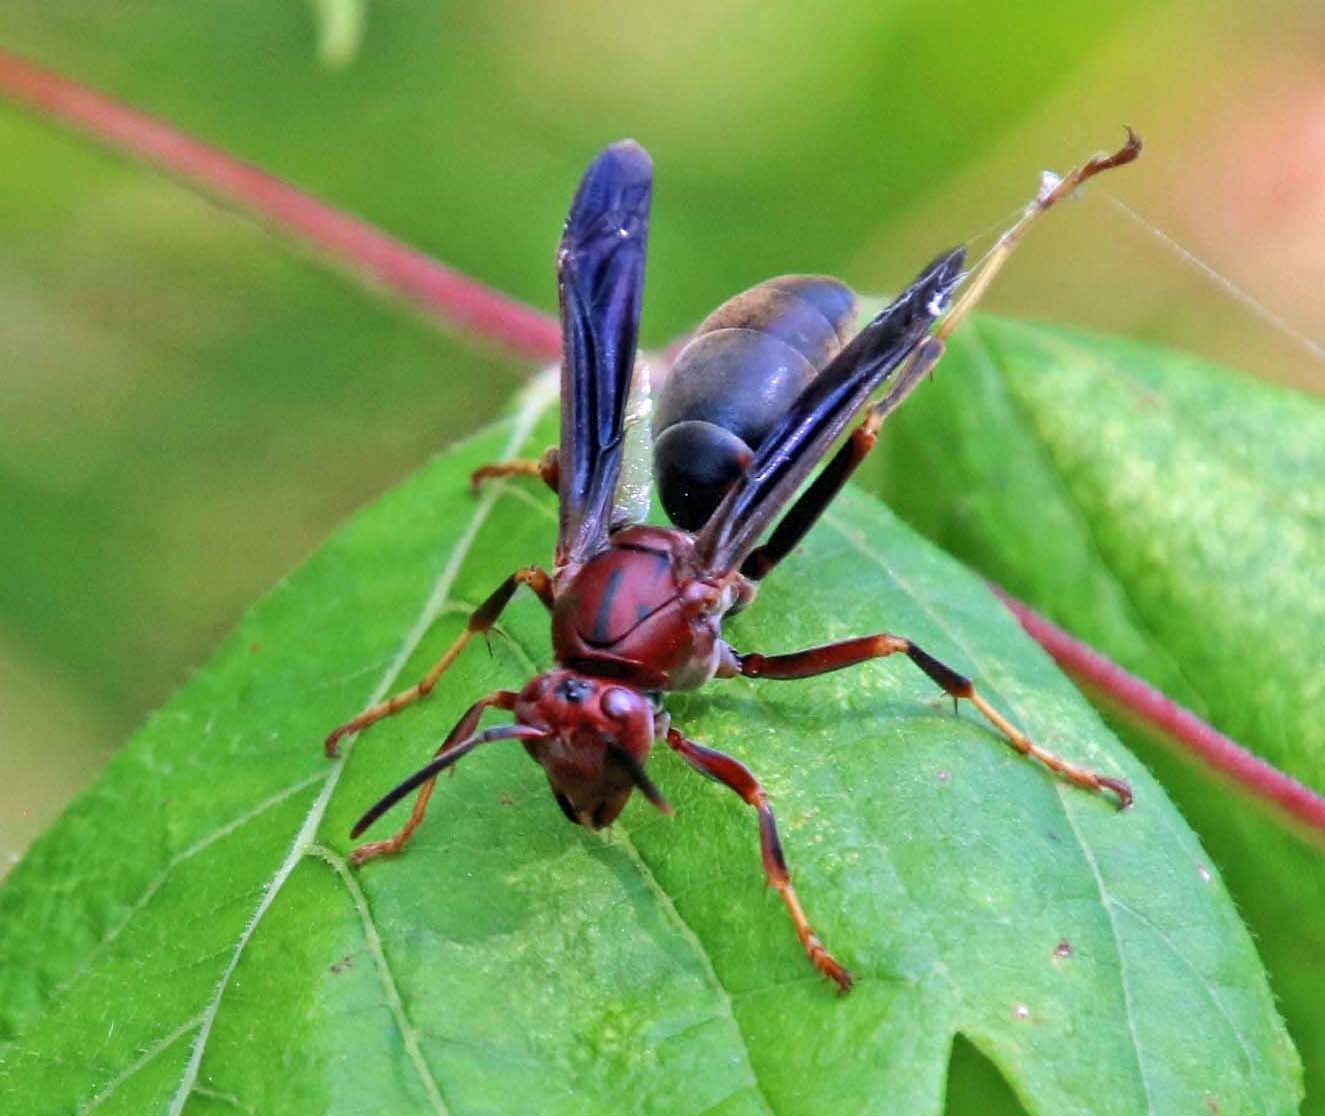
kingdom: Animalia
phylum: Arthropoda
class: Insecta
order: Hymenoptera
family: Eumenidae
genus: Polistes
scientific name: Polistes metricus
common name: Metric paper wasp
